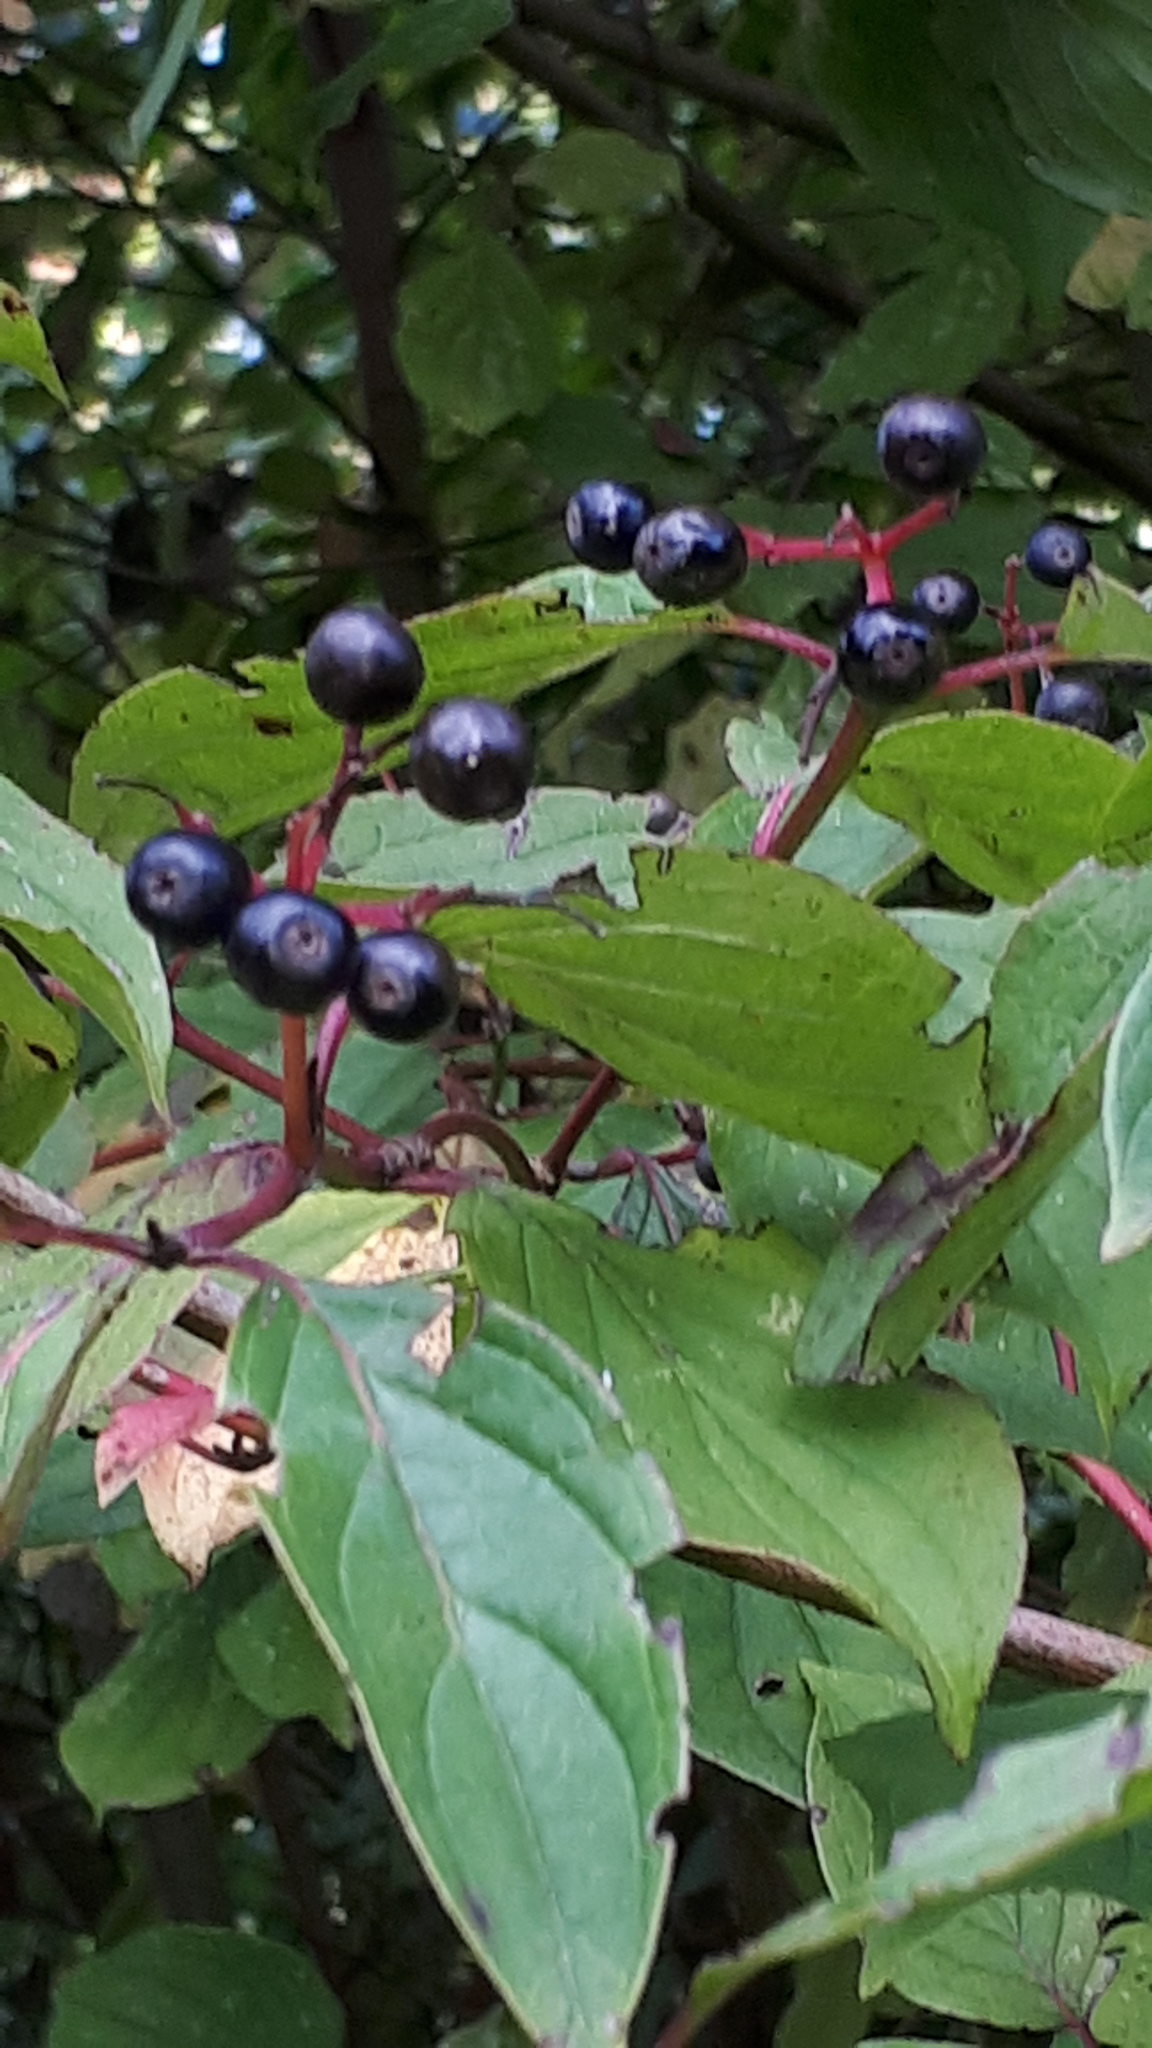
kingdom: Plantae
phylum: Tracheophyta
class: Magnoliopsida
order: Cornales
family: Cornaceae
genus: Cornus
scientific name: Cornus sanguinea
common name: Dogwood
